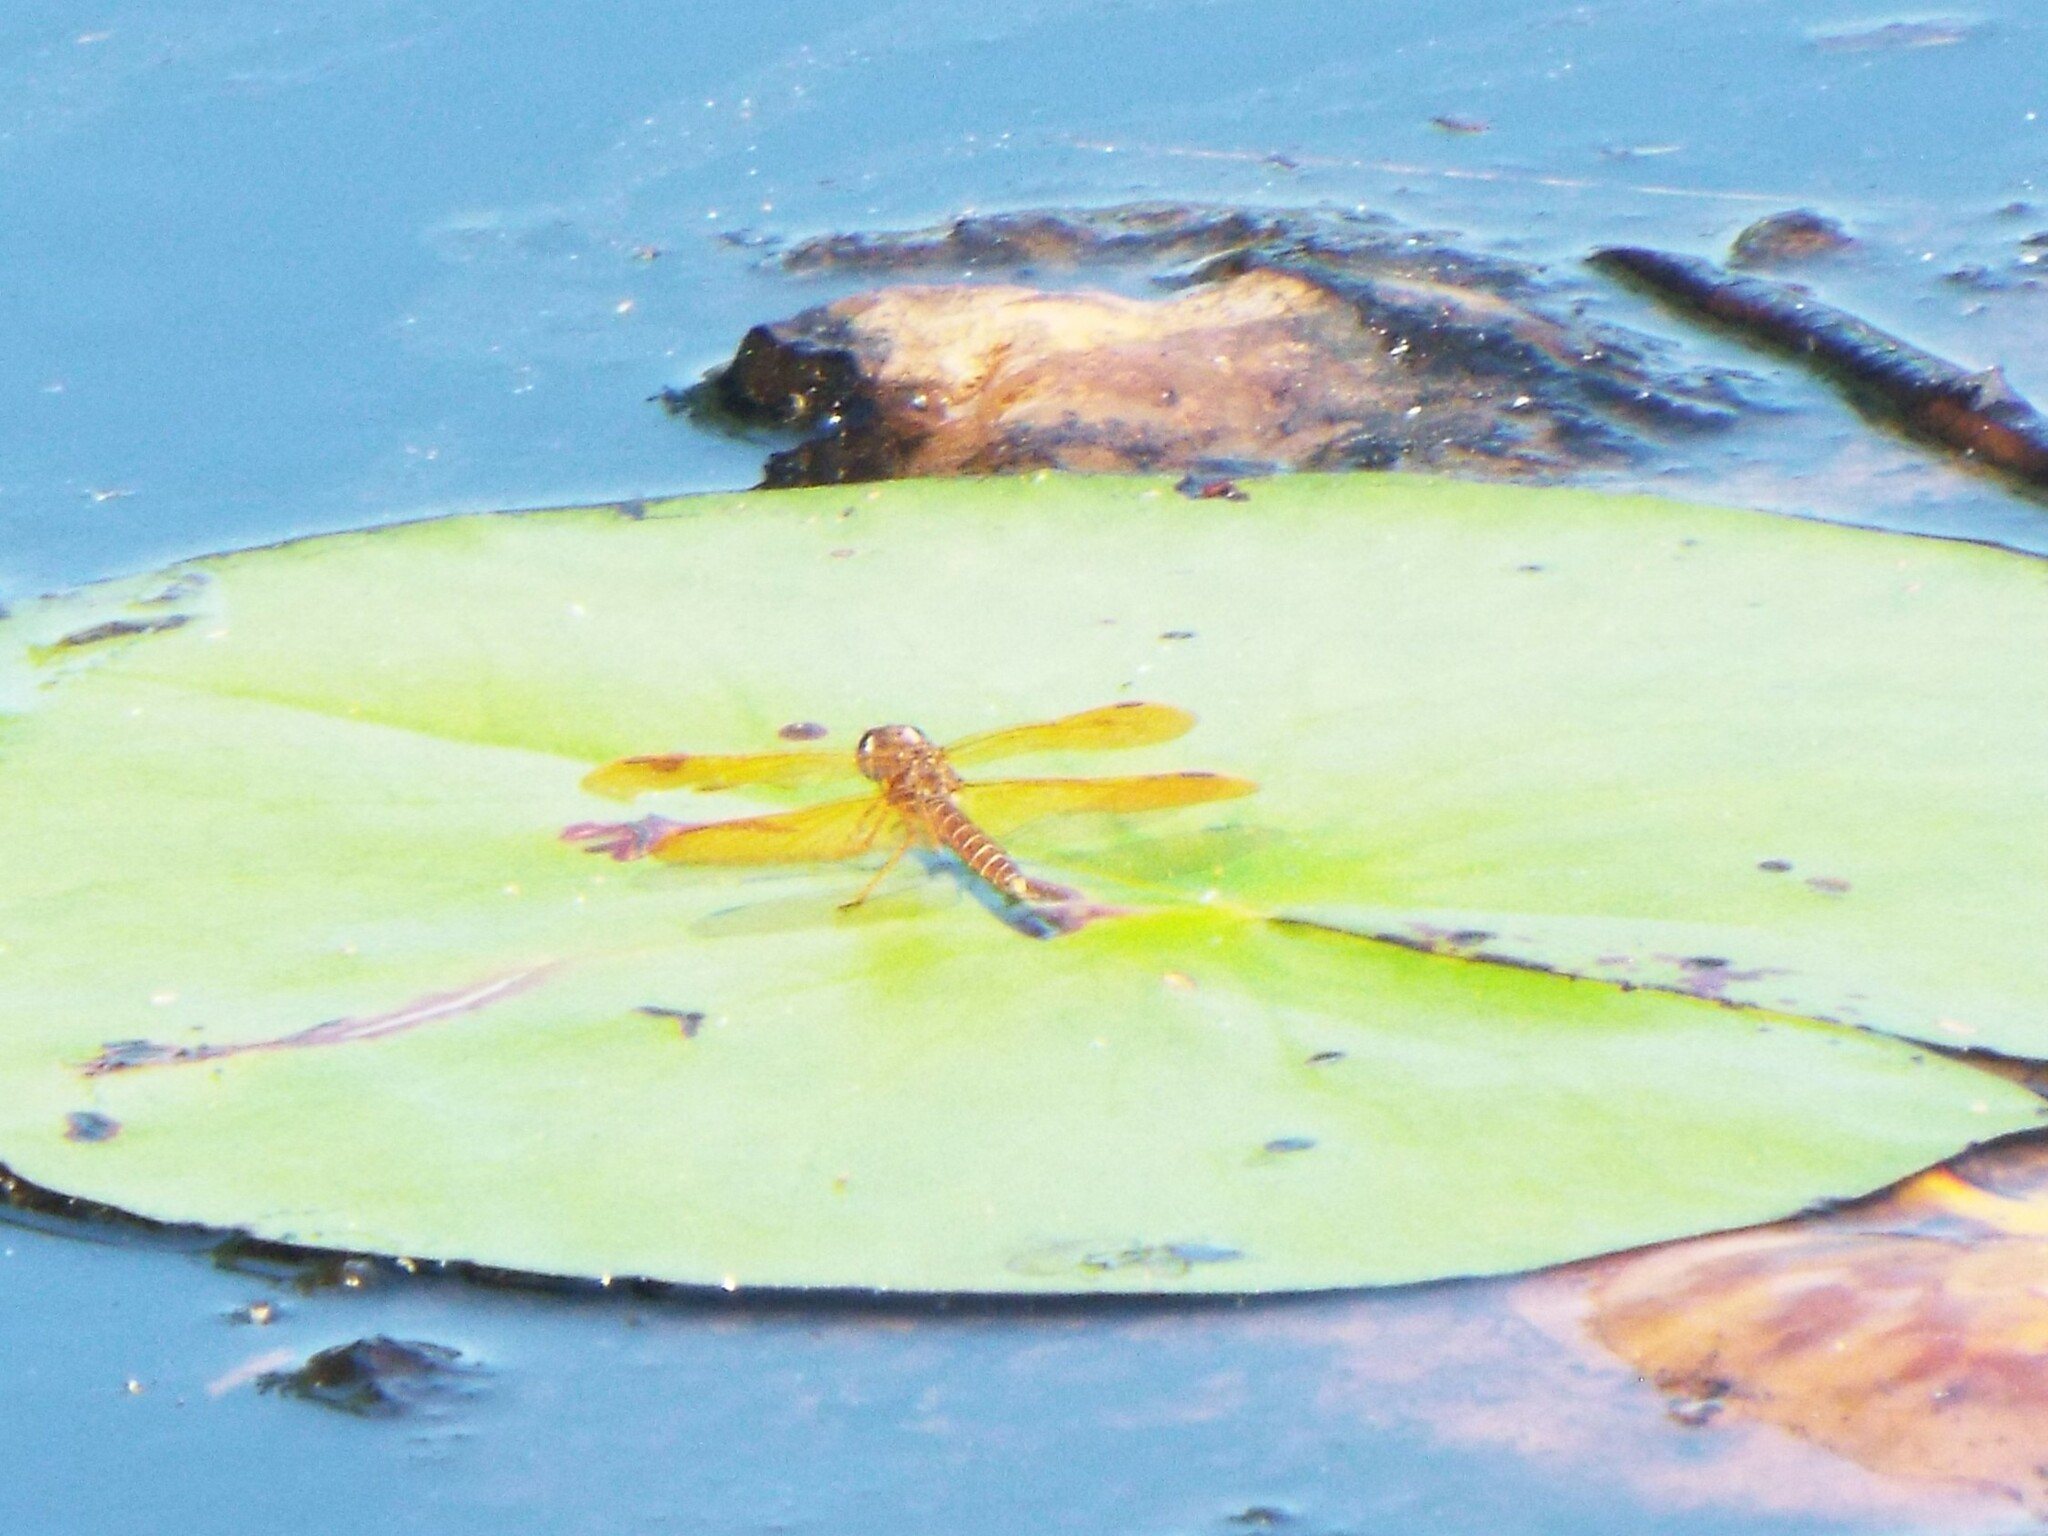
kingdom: Animalia
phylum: Arthropoda
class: Insecta
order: Odonata
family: Libellulidae
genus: Perithemis
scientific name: Perithemis tenera
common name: Eastern amberwing
